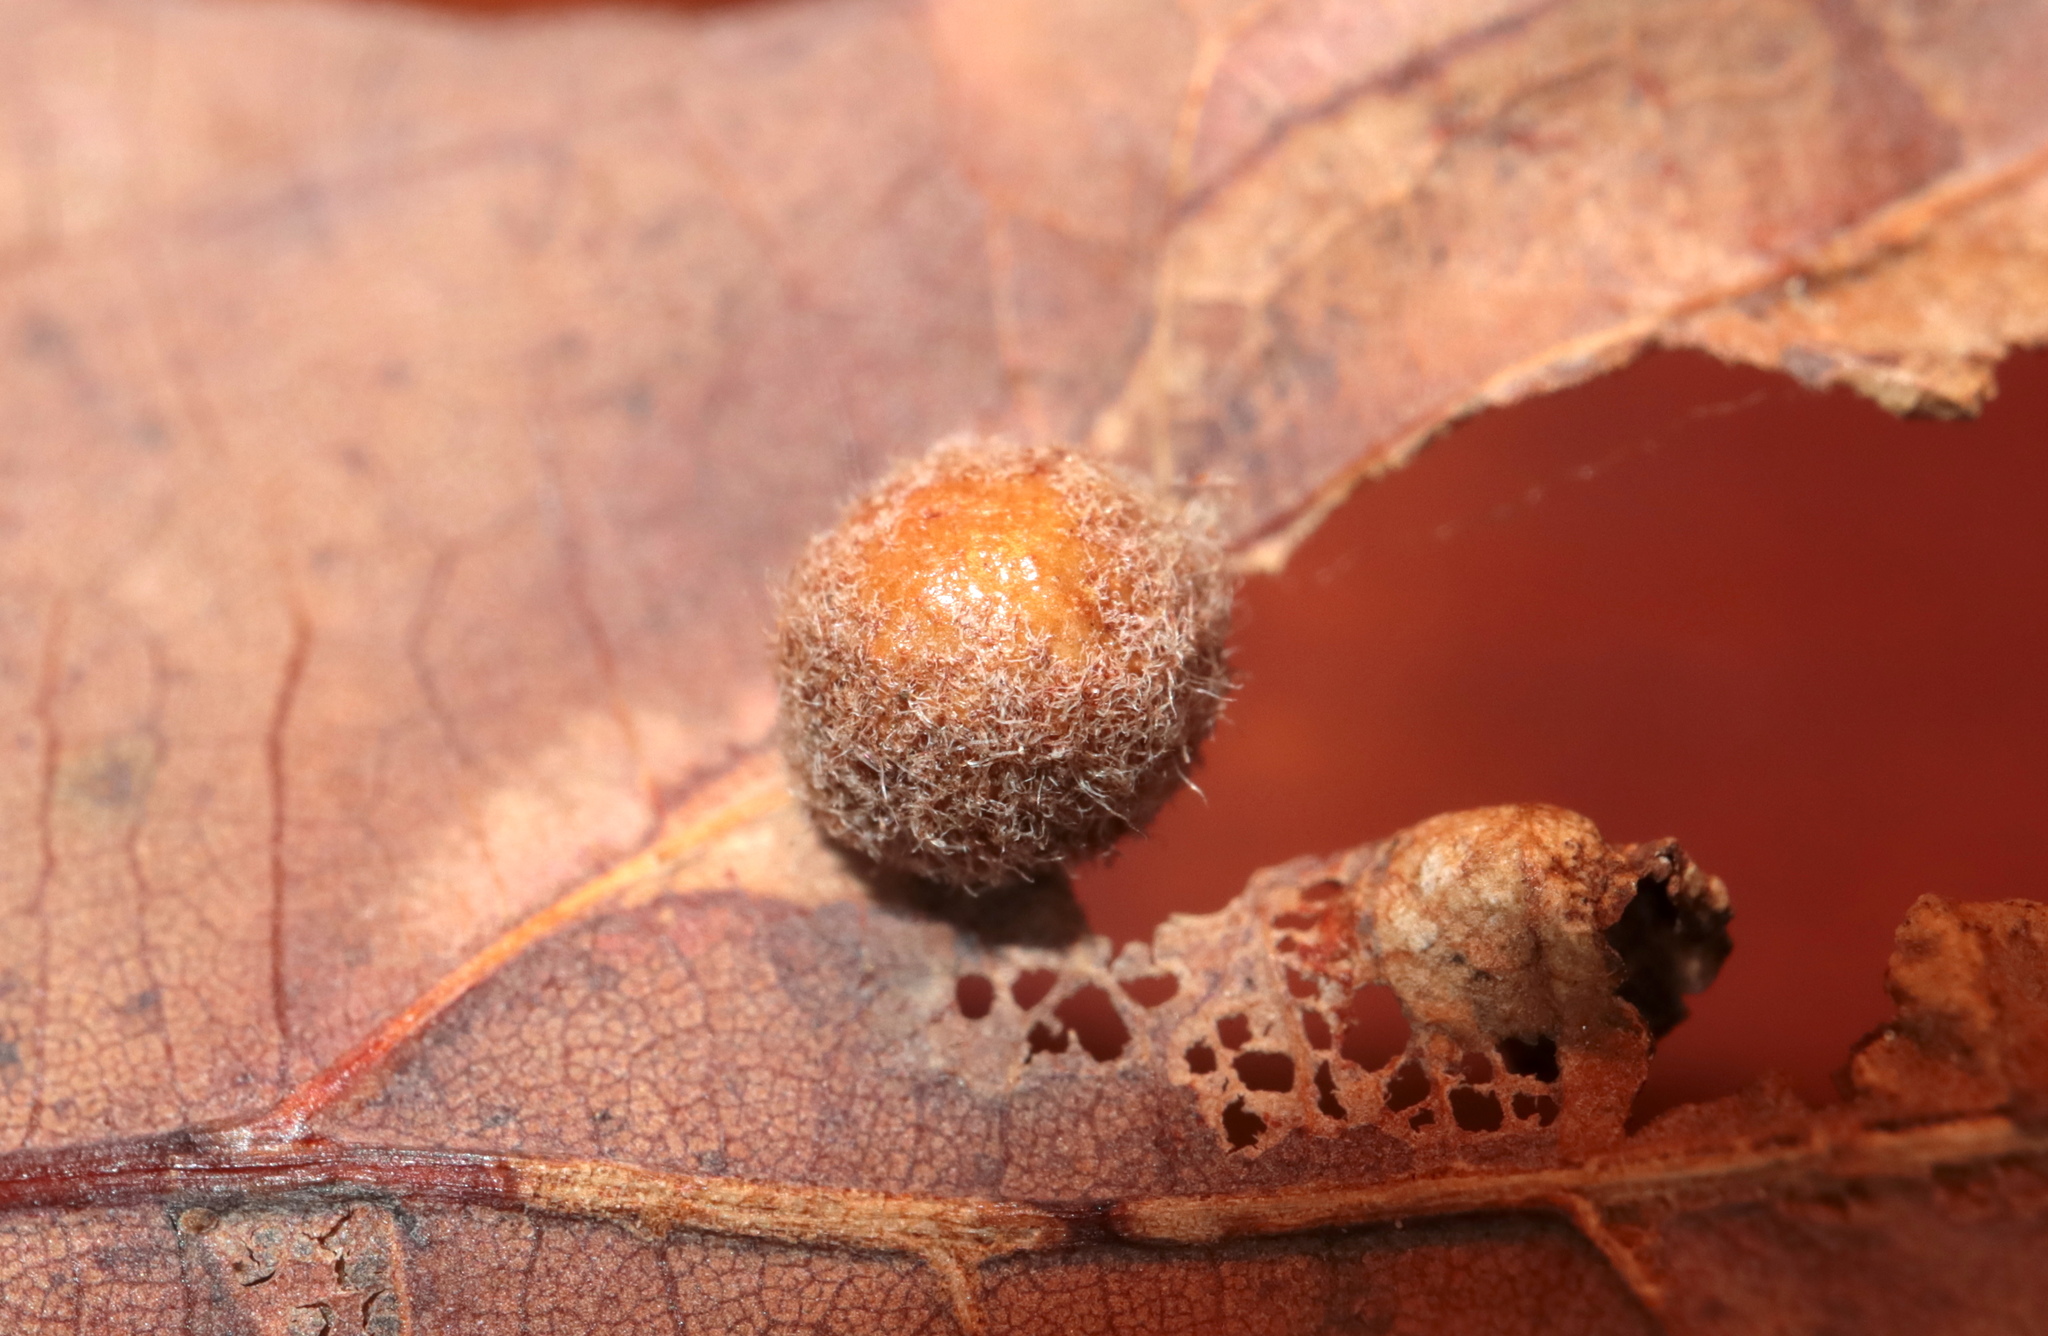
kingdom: Animalia
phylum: Arthropoda
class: Insecta
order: Hymenoptera
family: Cynipidae
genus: Philonix
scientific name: Philonix fulvicollis
